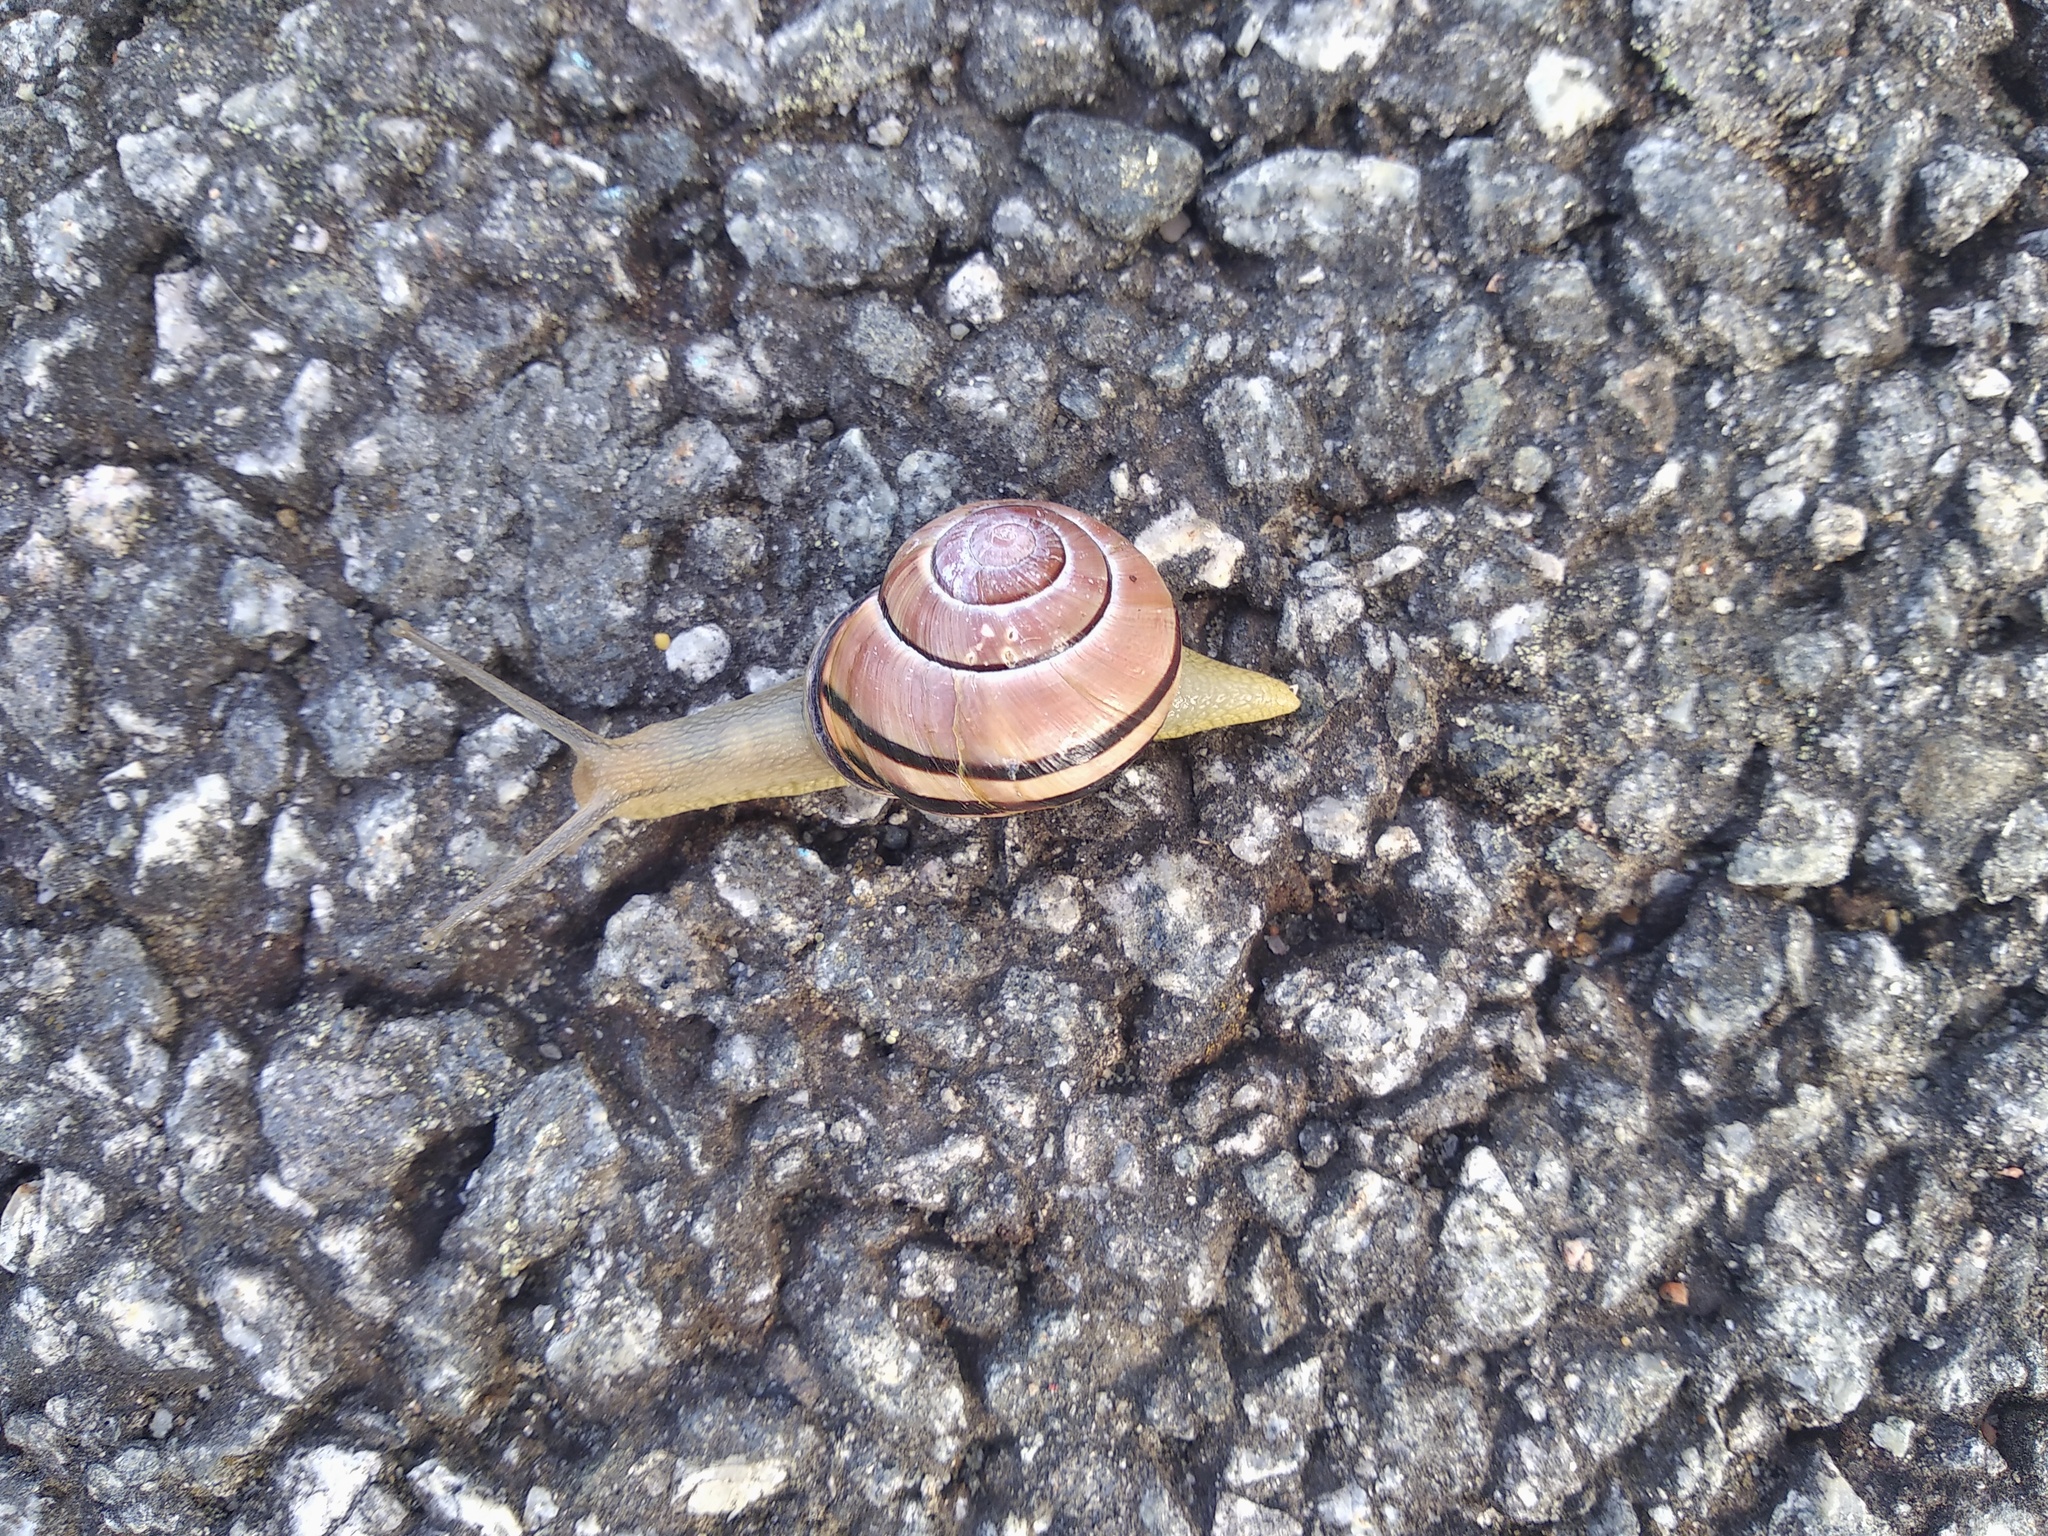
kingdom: Animalia
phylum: Mollusca
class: Gastropoda
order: Stylommatophora
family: Helicidae
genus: Cepaea
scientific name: Cepaea nemoralis
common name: Grovesnail
